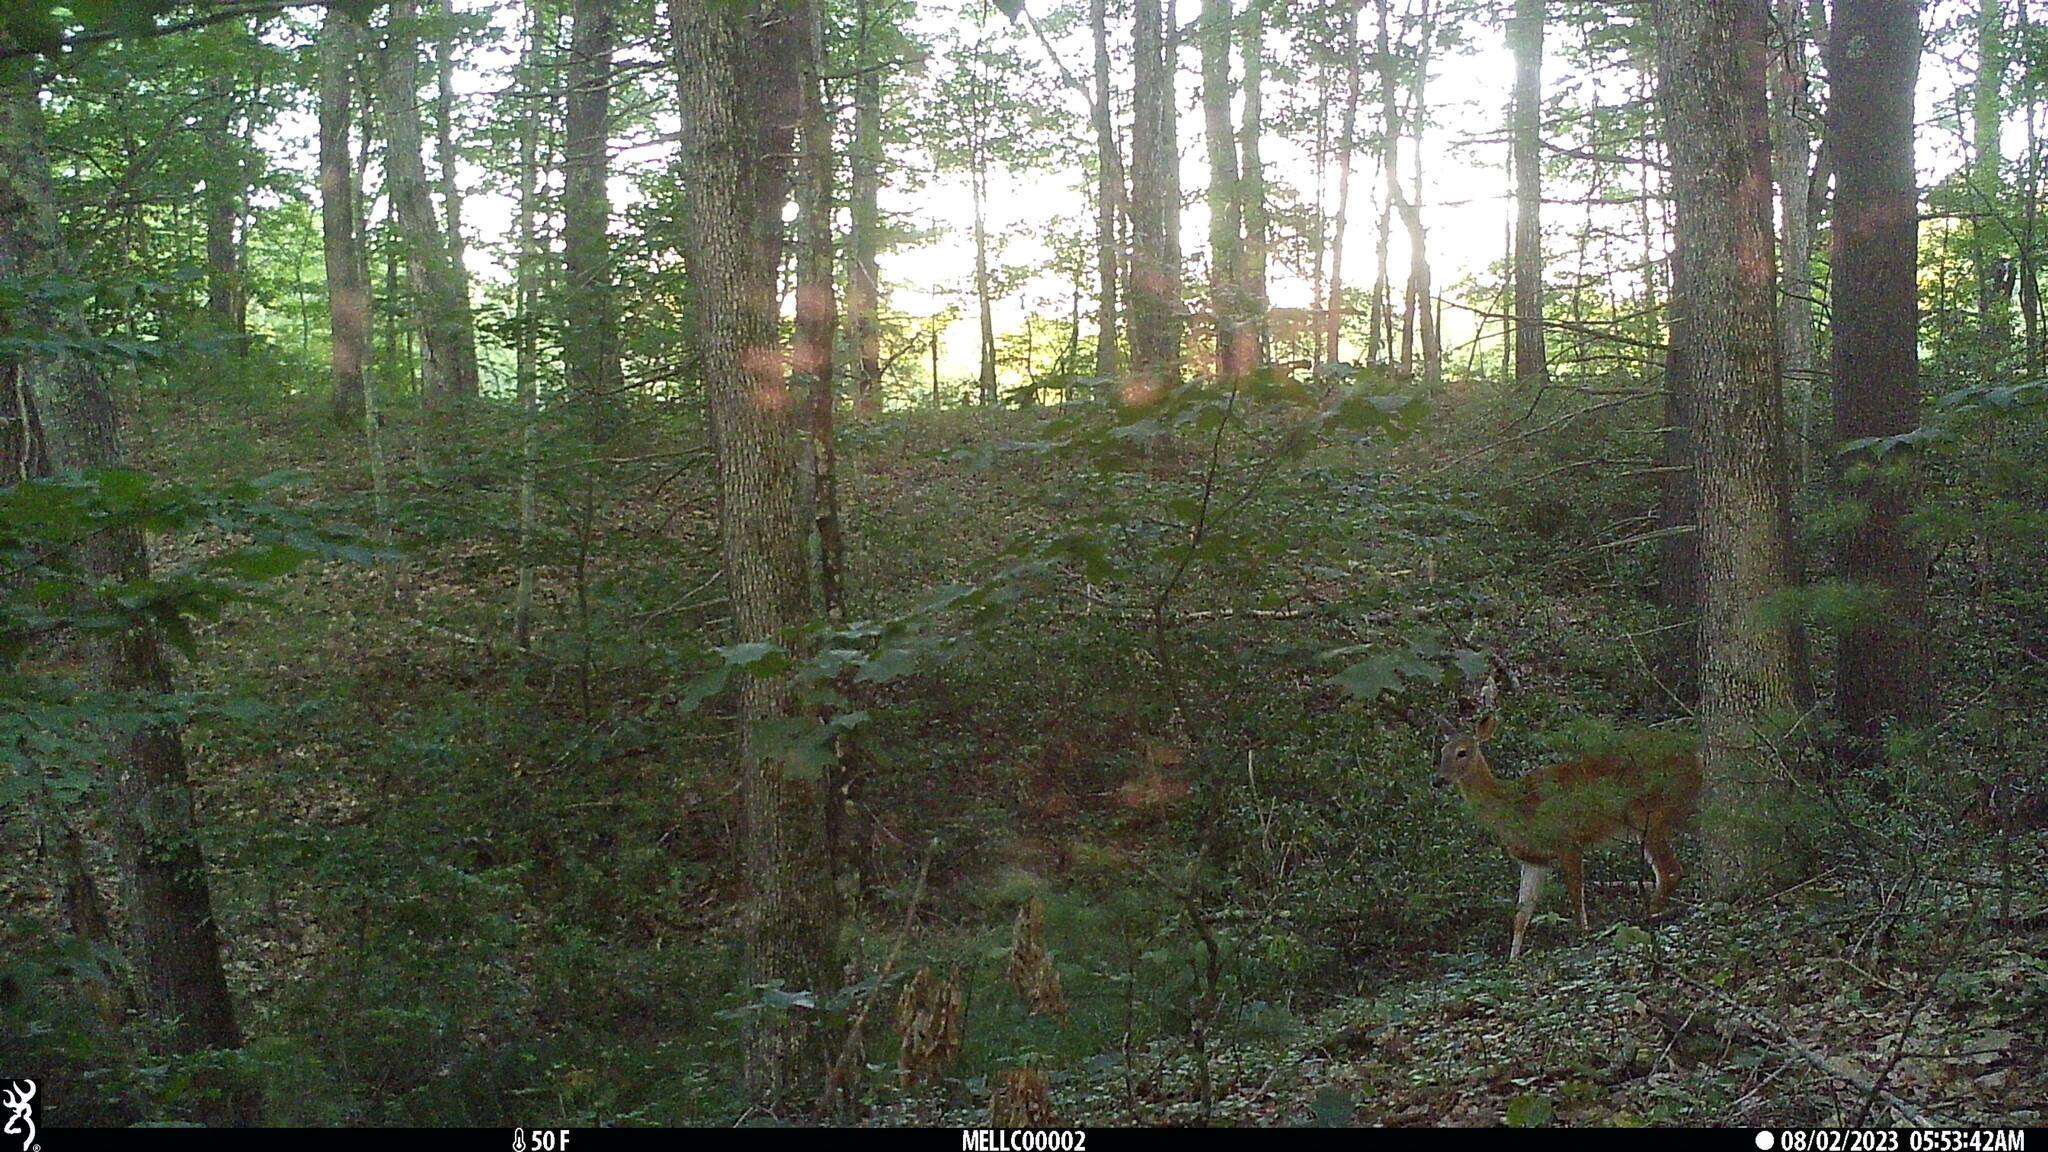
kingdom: Animalia
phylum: Chordata
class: Mammalia
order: Artiodactyla
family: Cervidae
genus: Odocoileus
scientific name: Odocoileus virginianus
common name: White-tailed deer
